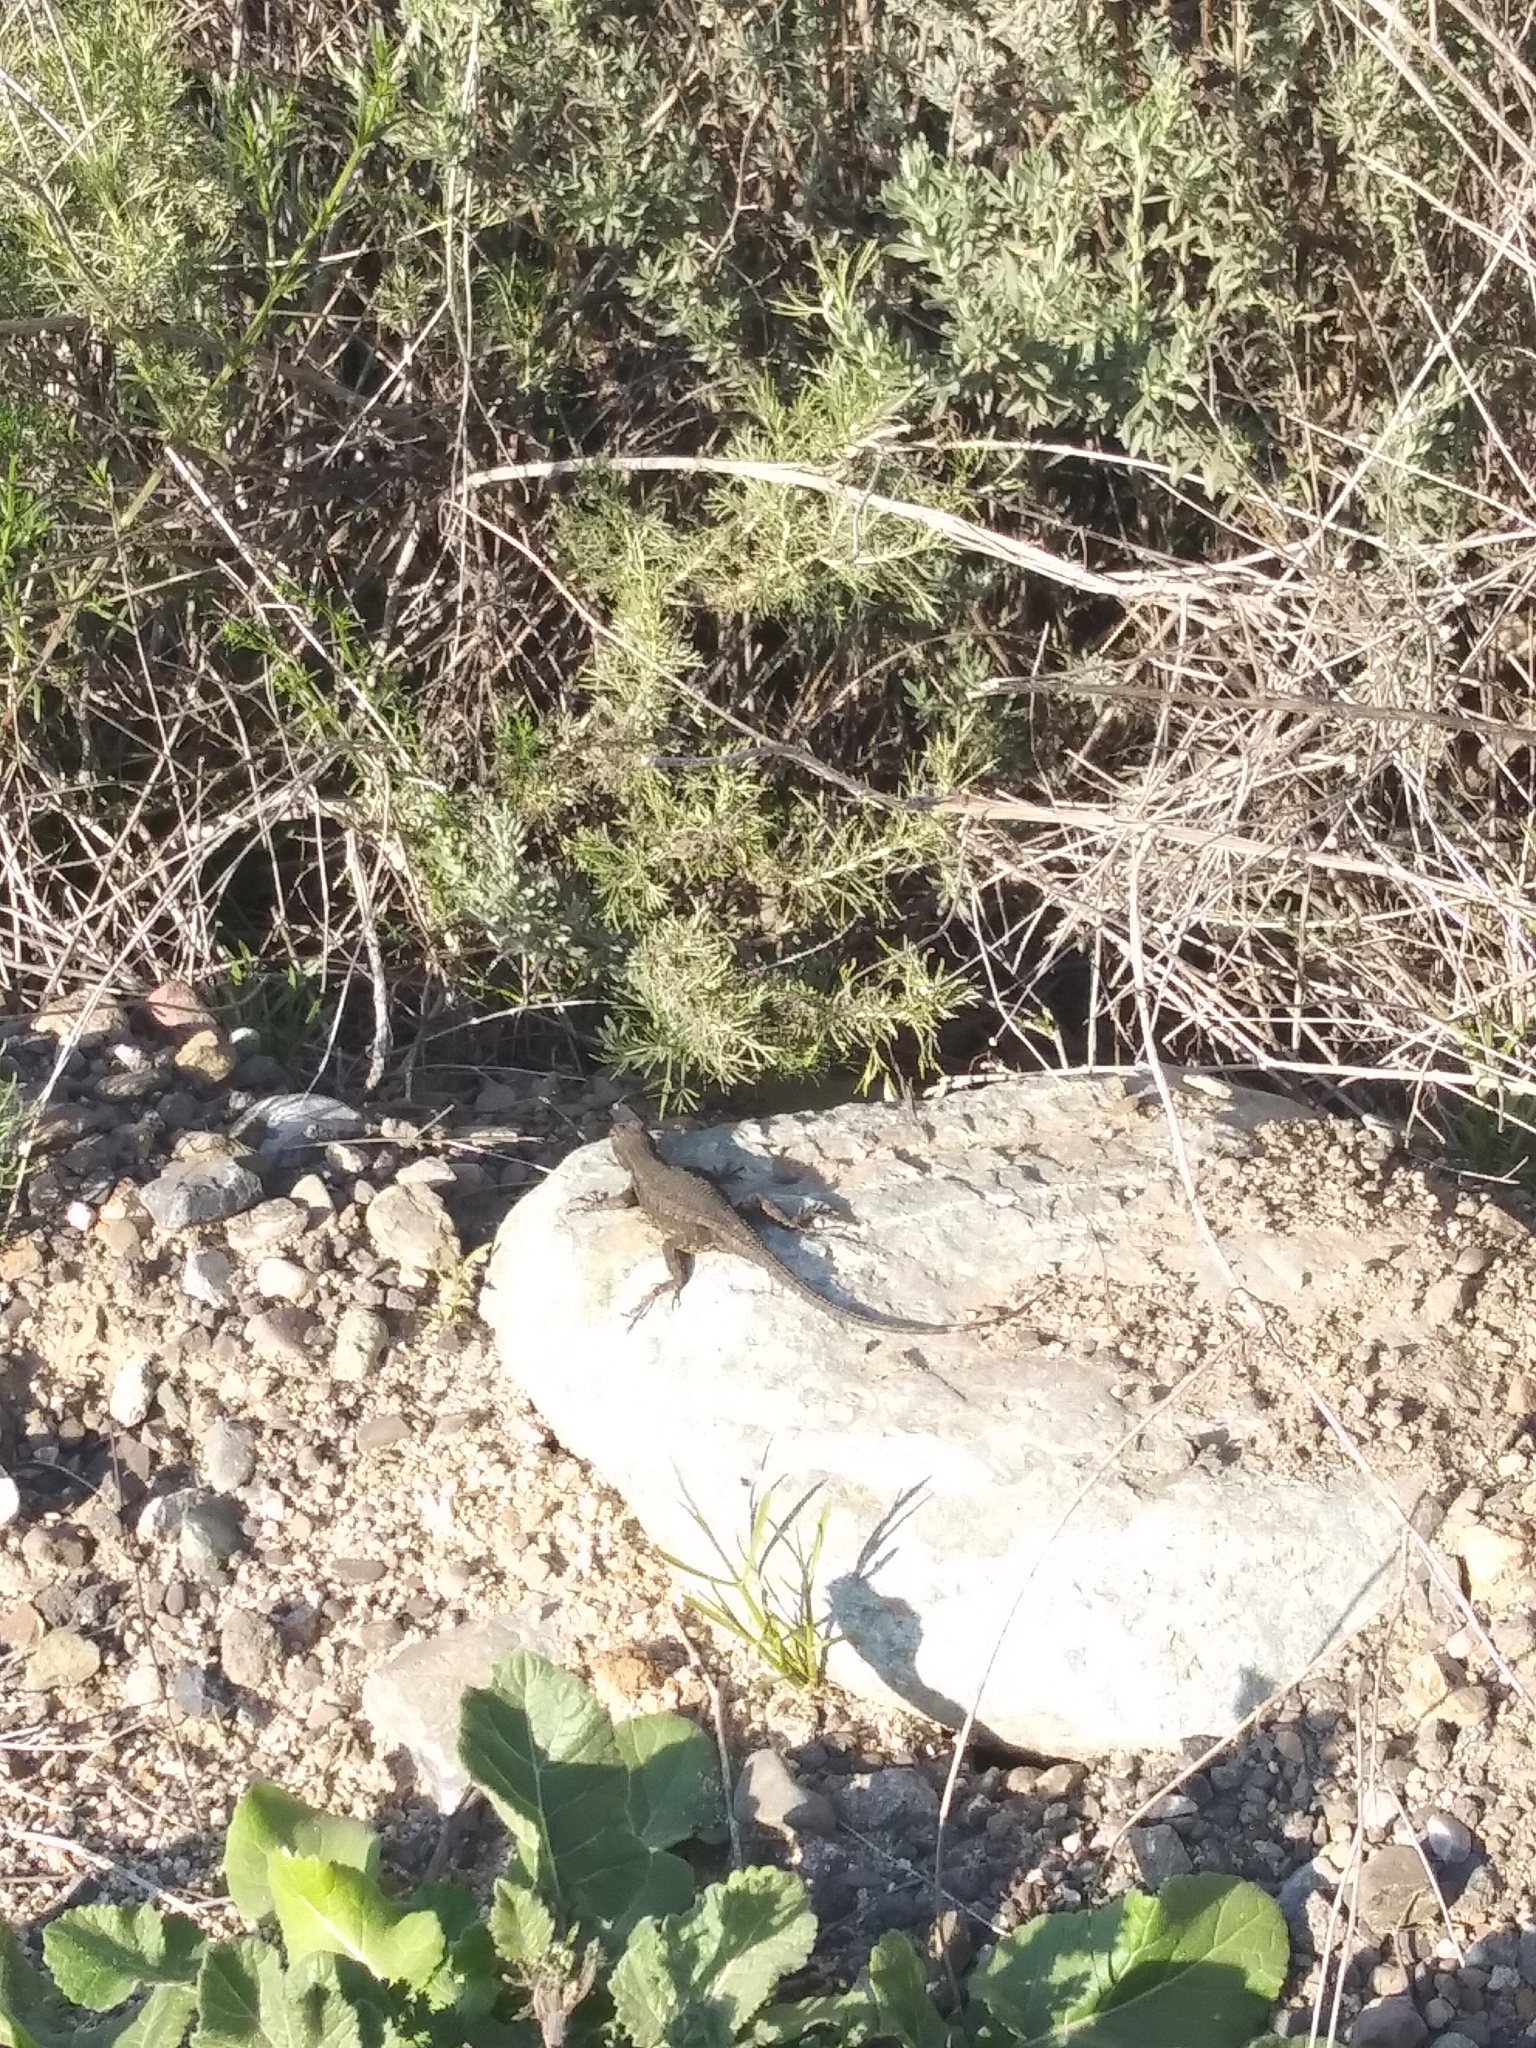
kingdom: Animalia
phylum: Chordata
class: Squamata
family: Phrynosomatidae
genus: Sceloporus
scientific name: Sceloporus occidentalis
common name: Western fence lizard
